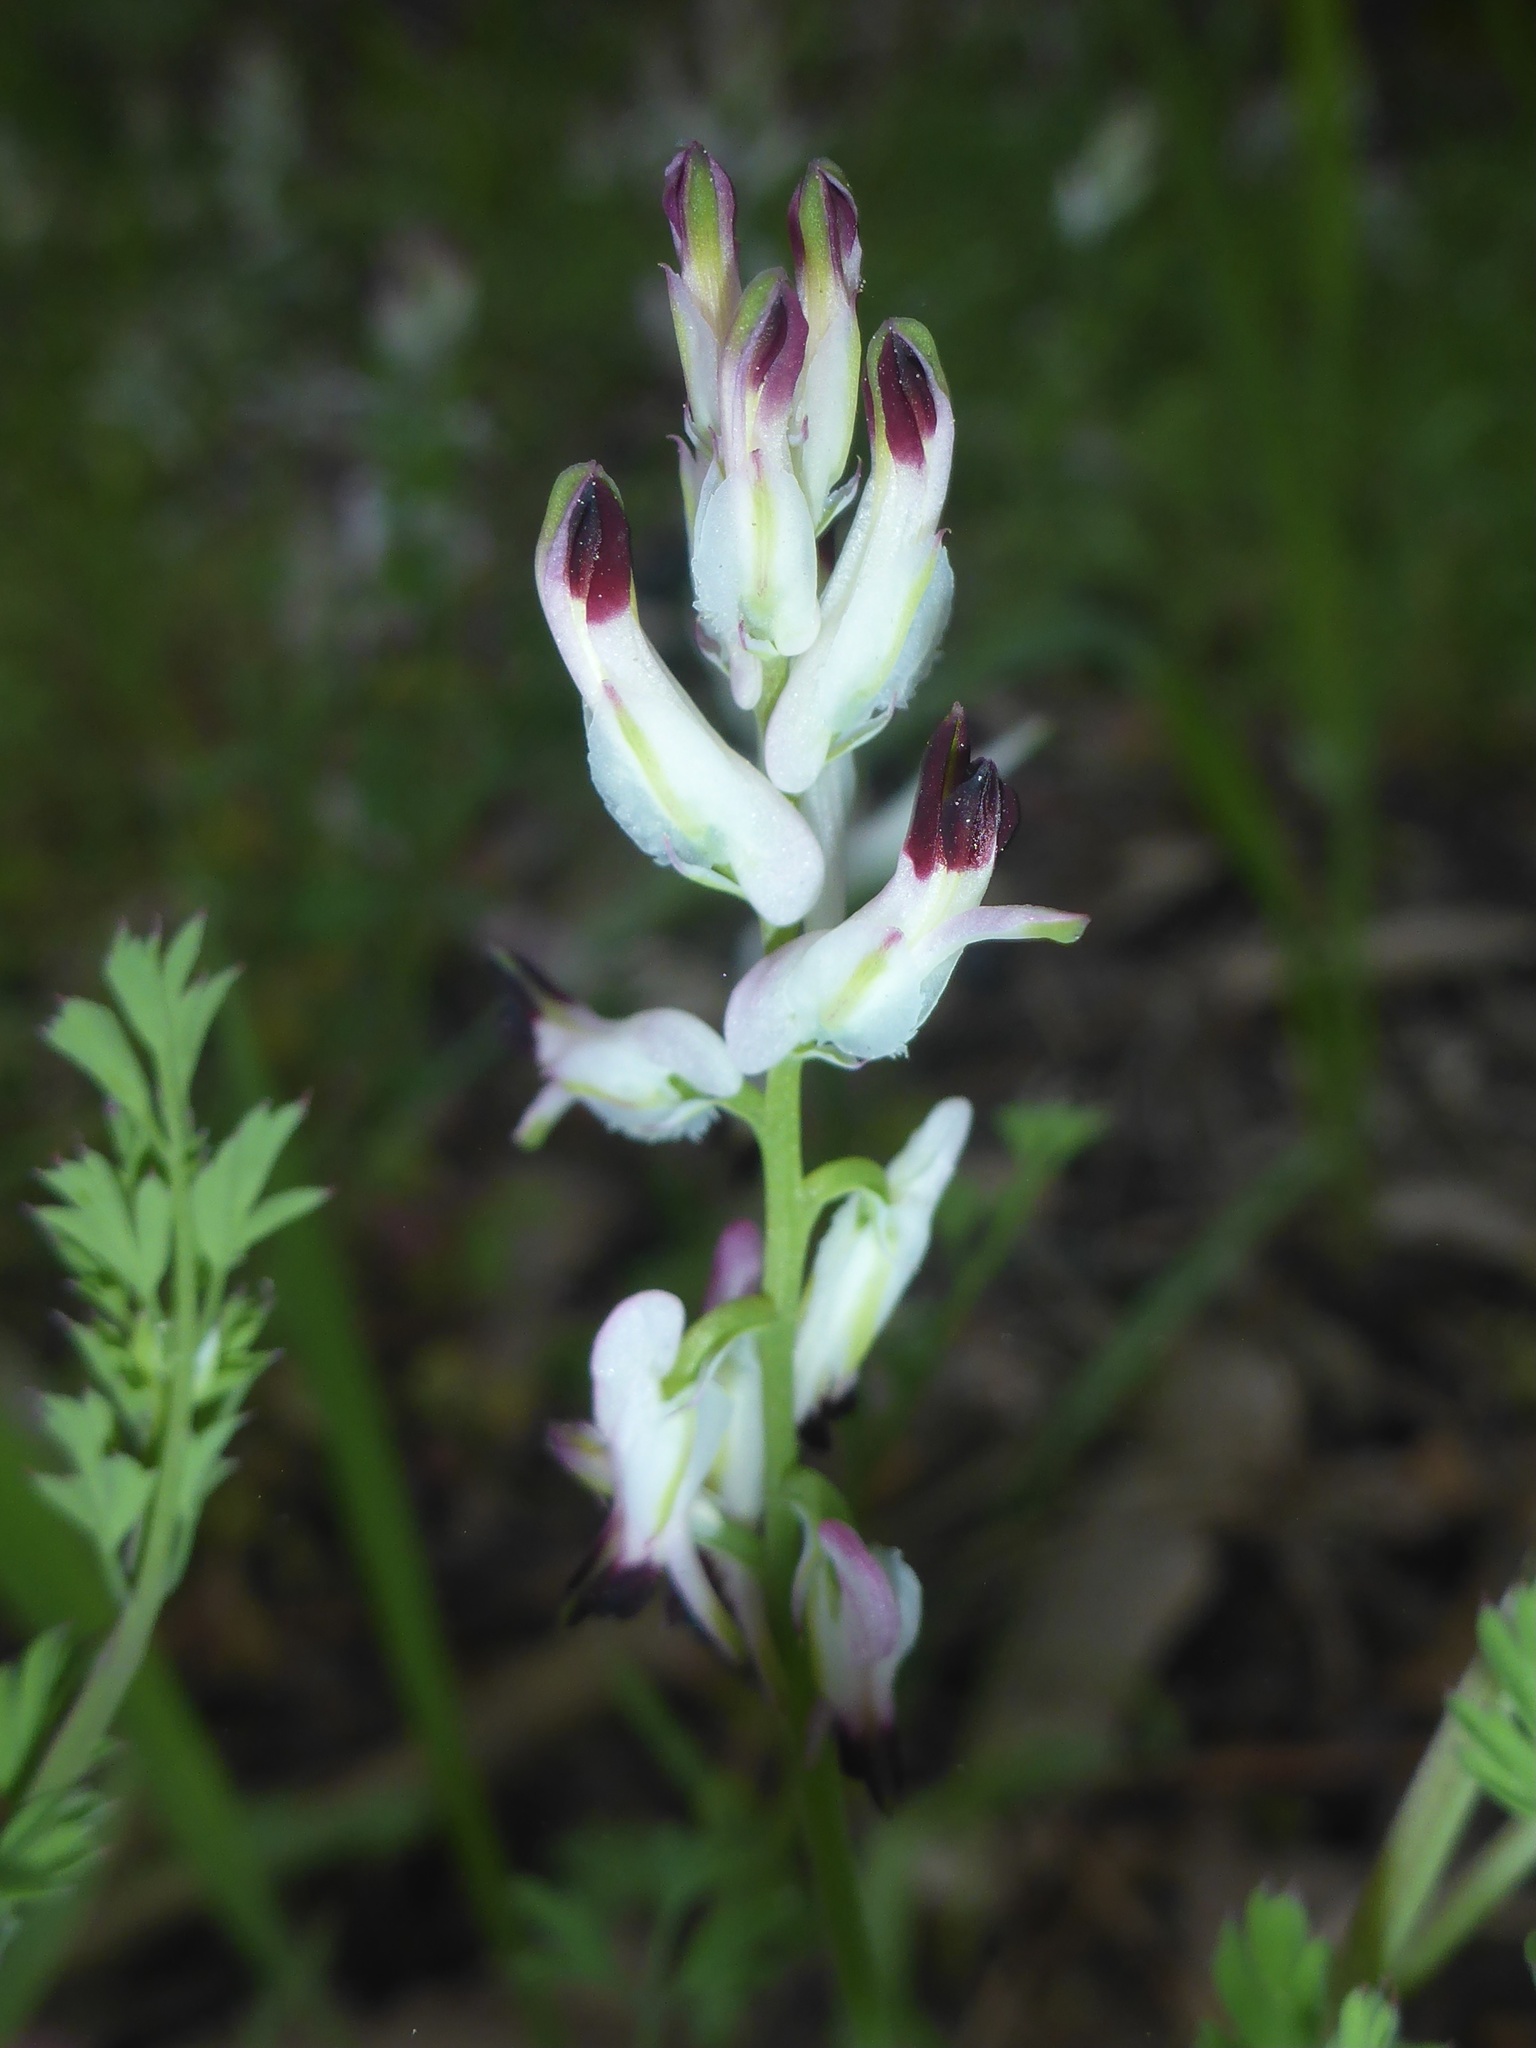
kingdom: Plantae
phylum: Tracheophyta
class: Magnoliopsida
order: Ranunculales
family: Papaveraceae
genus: Fumaria
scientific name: Fumaria capreolata
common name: White ramping-fumitory
